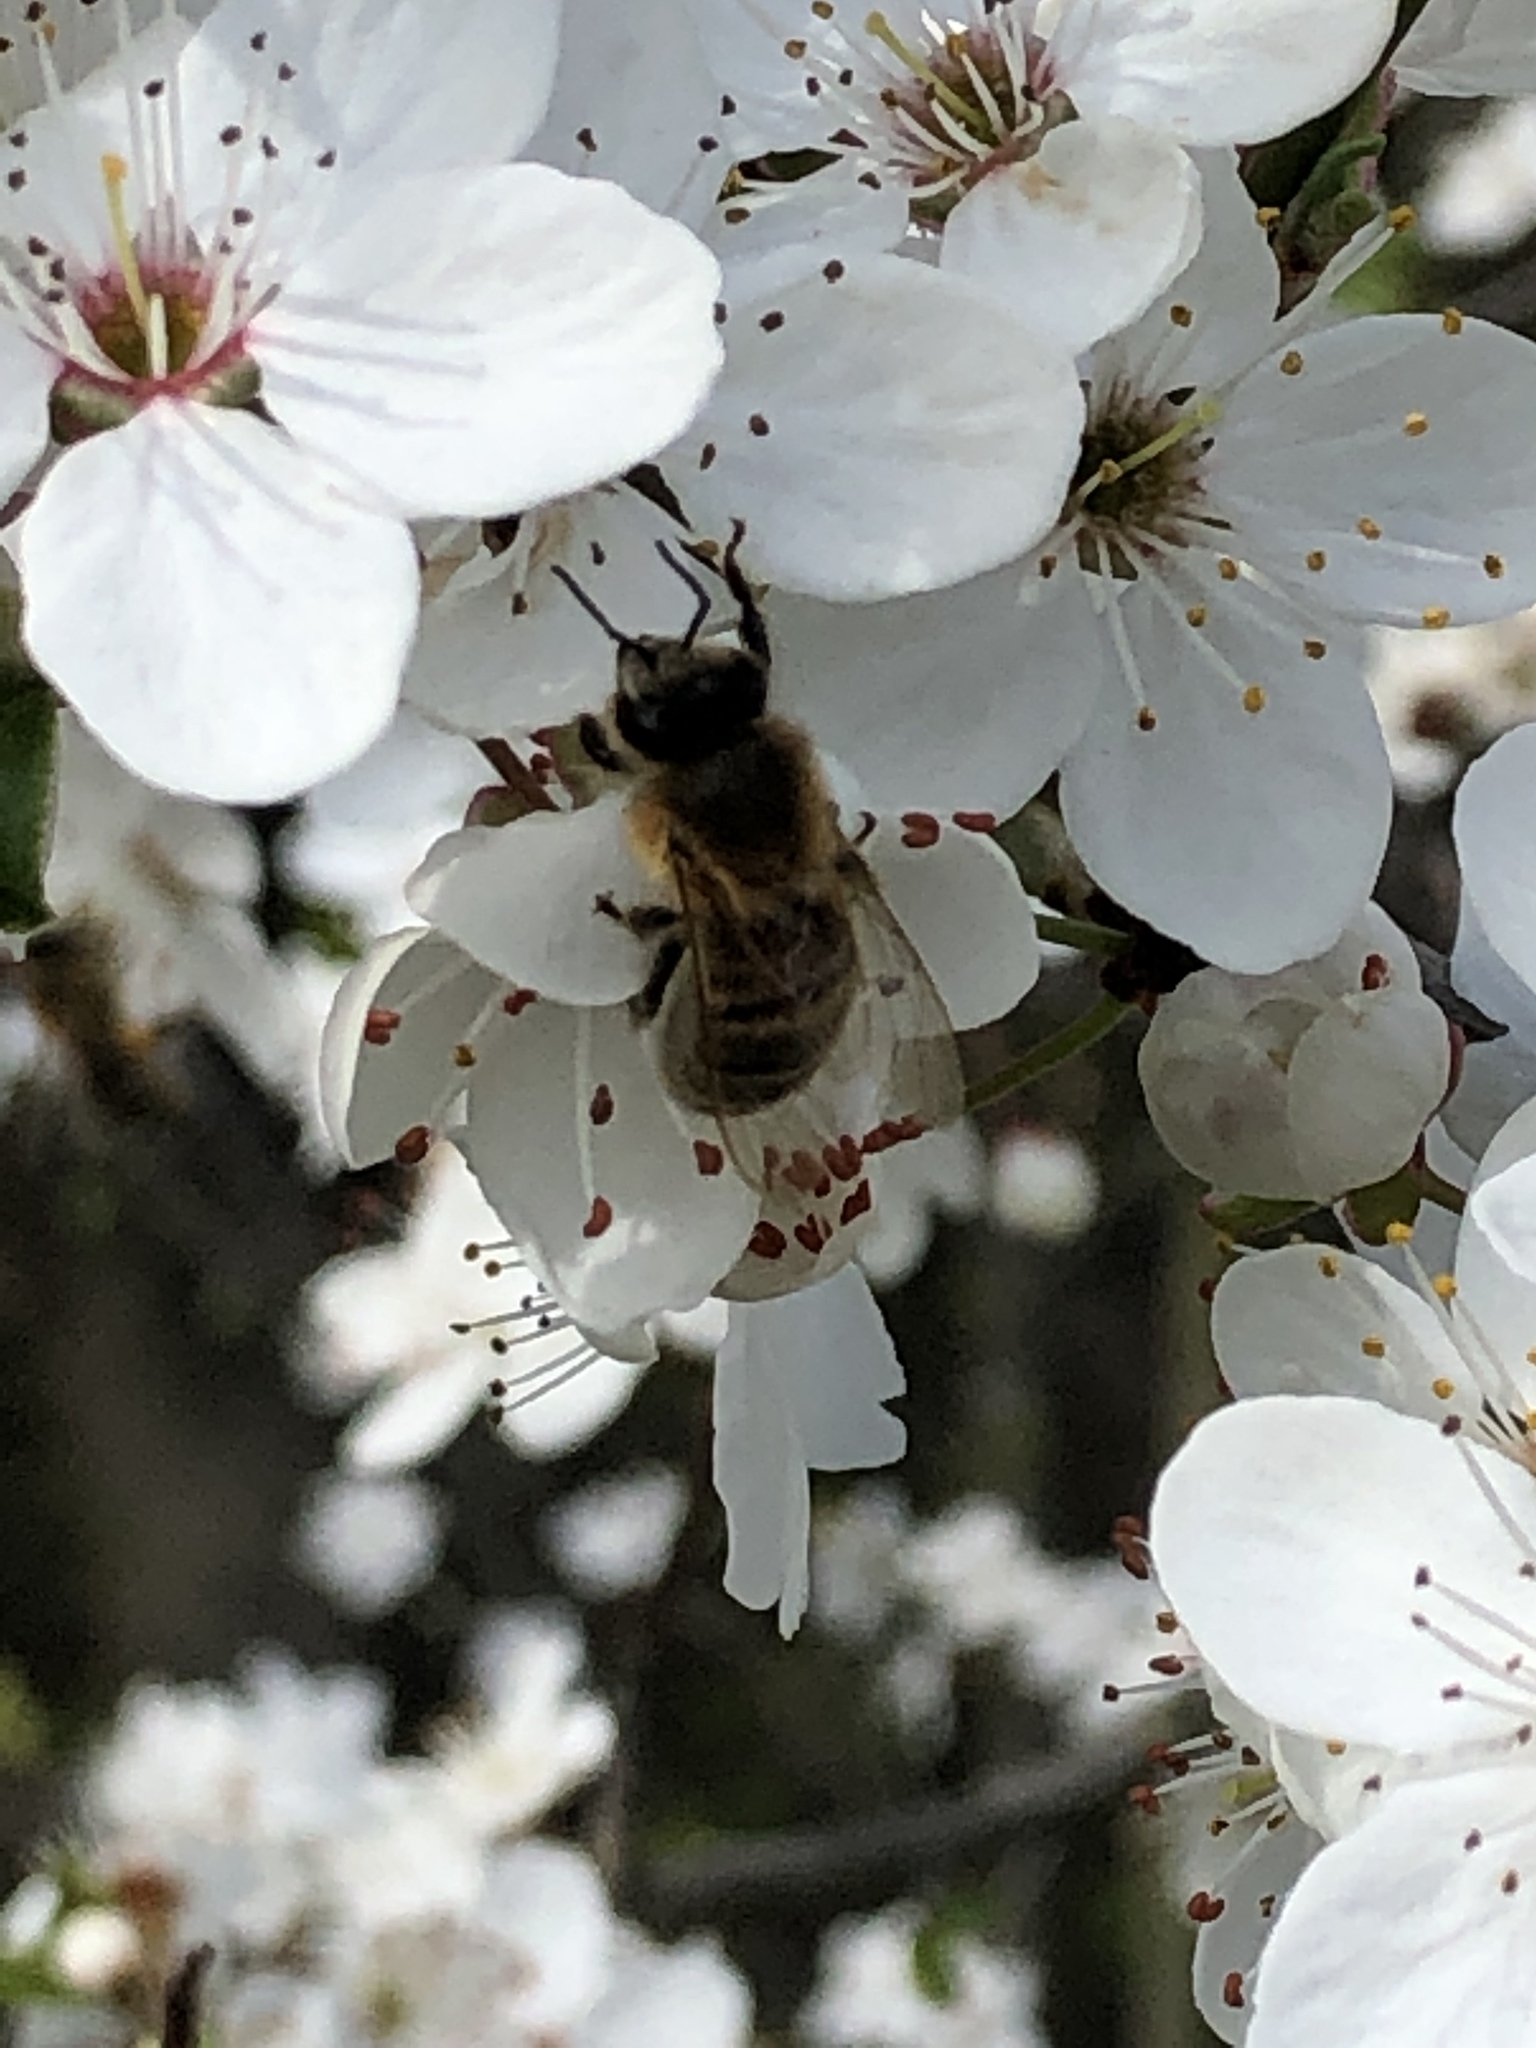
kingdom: Animalia
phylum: Arthropoda
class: Insecta
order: Hymenoptera
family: Apidae
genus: Apis
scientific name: Apis mellifera
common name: Honey bee
